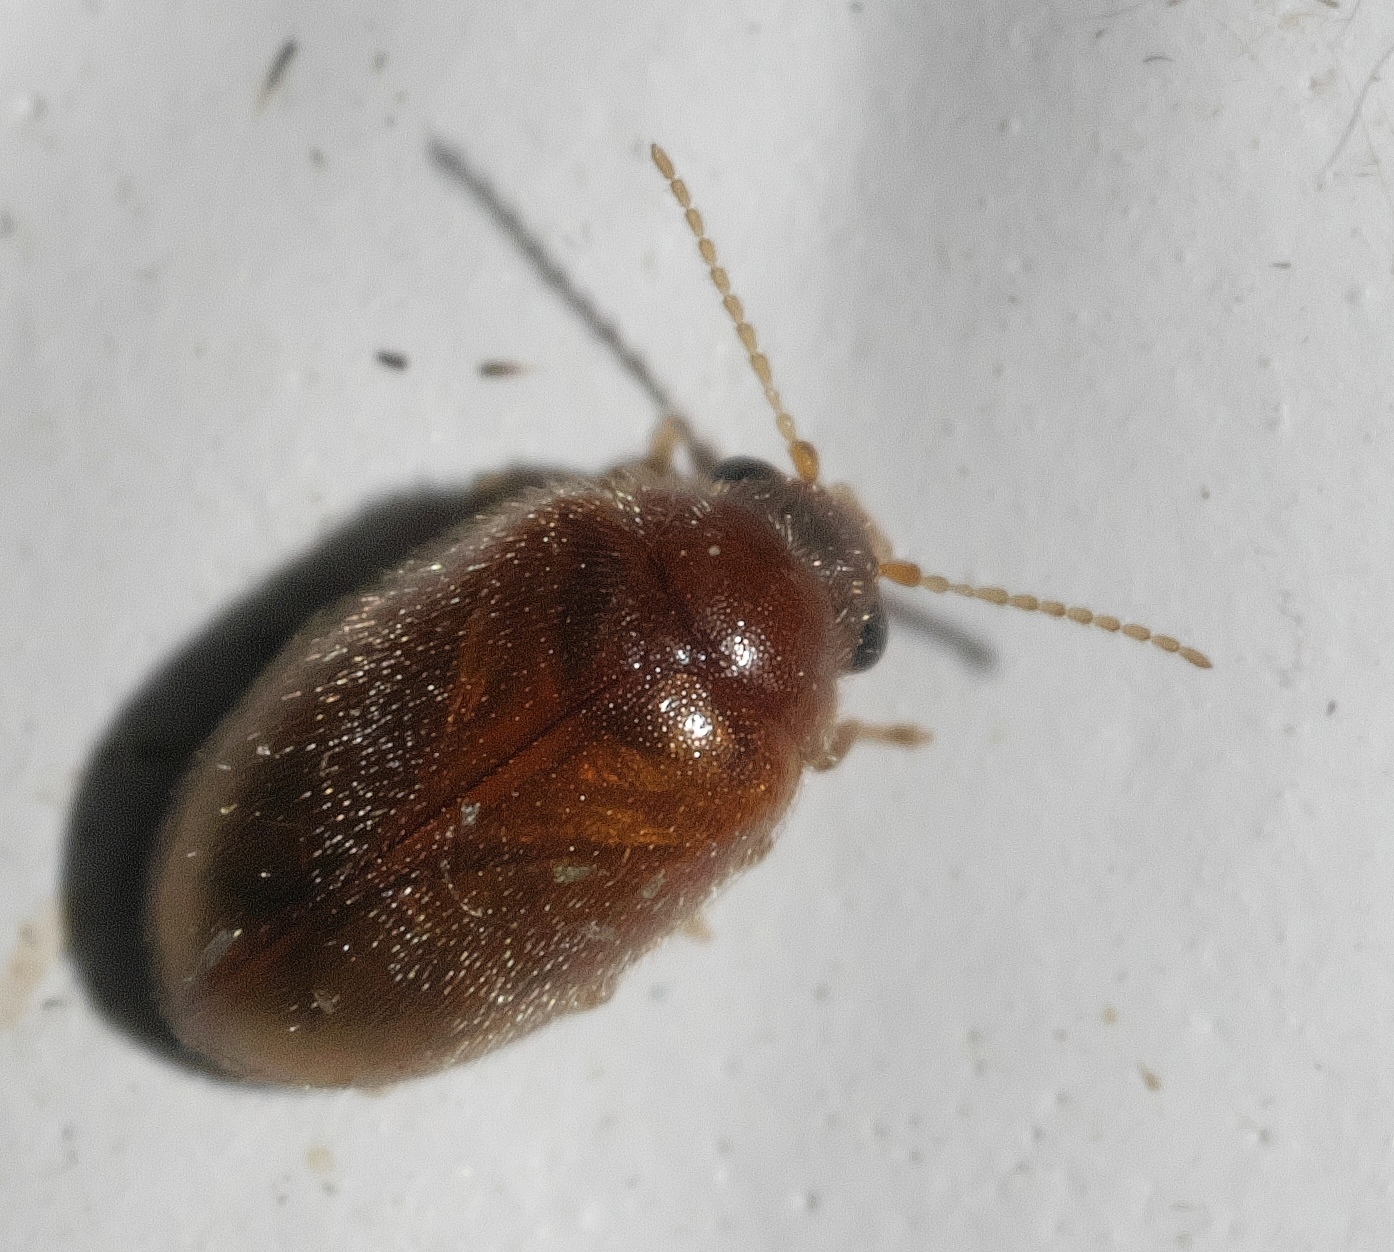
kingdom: Animalia
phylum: Arthropoda
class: Insecta
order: Coleoptera
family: Scirtidae
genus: Contacyphon
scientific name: Contacyphon
